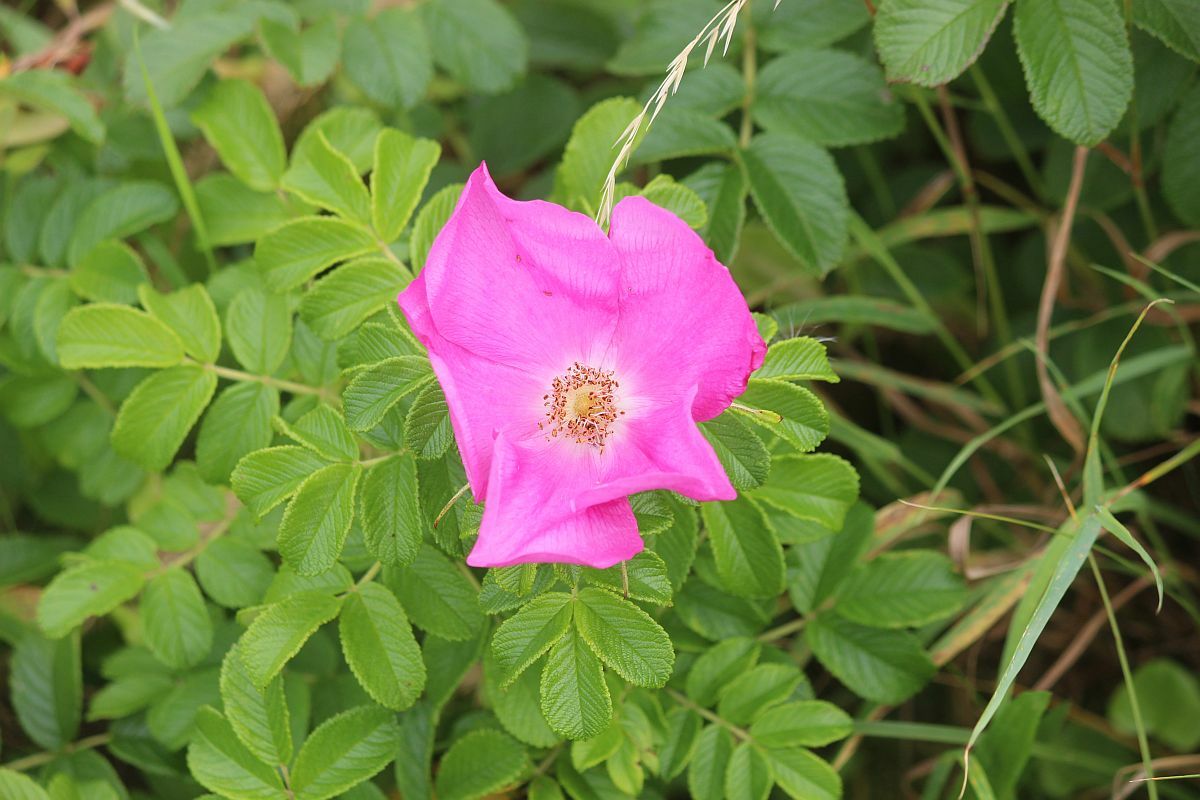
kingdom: Plantae
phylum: Tracheophyta
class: Magnoliopsida
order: Rosales
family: Rosaceae
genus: Rosa
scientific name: Rosa rugosa
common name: Japanese rose
